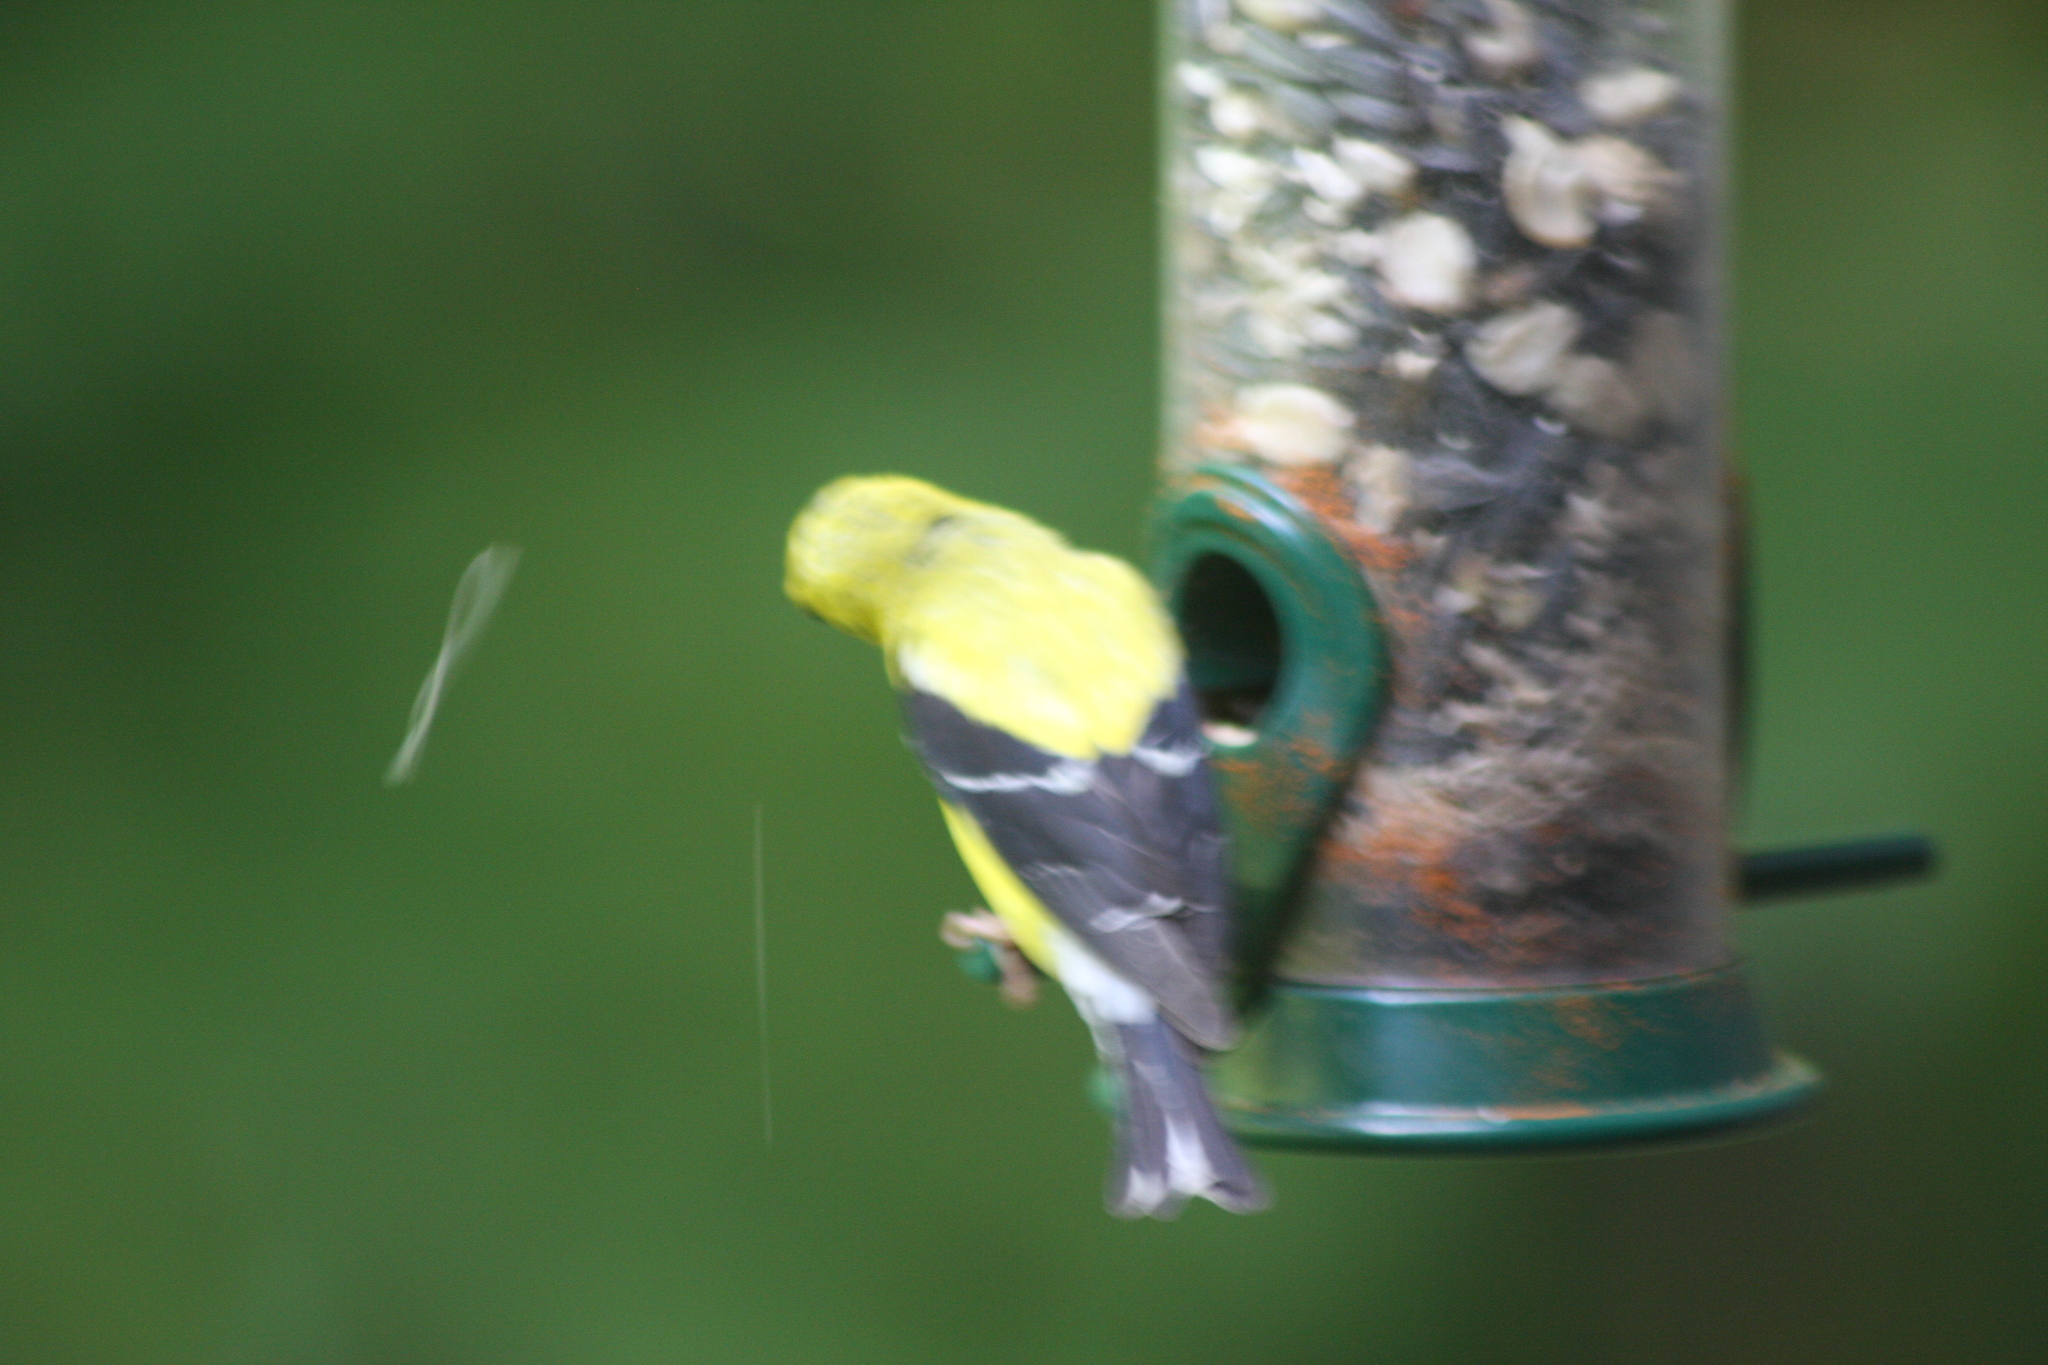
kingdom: Animalia
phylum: Chordata
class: Aves
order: Passeriformes
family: Fringillidae
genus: Spinus
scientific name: Spinus tristis
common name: American goldfinch
